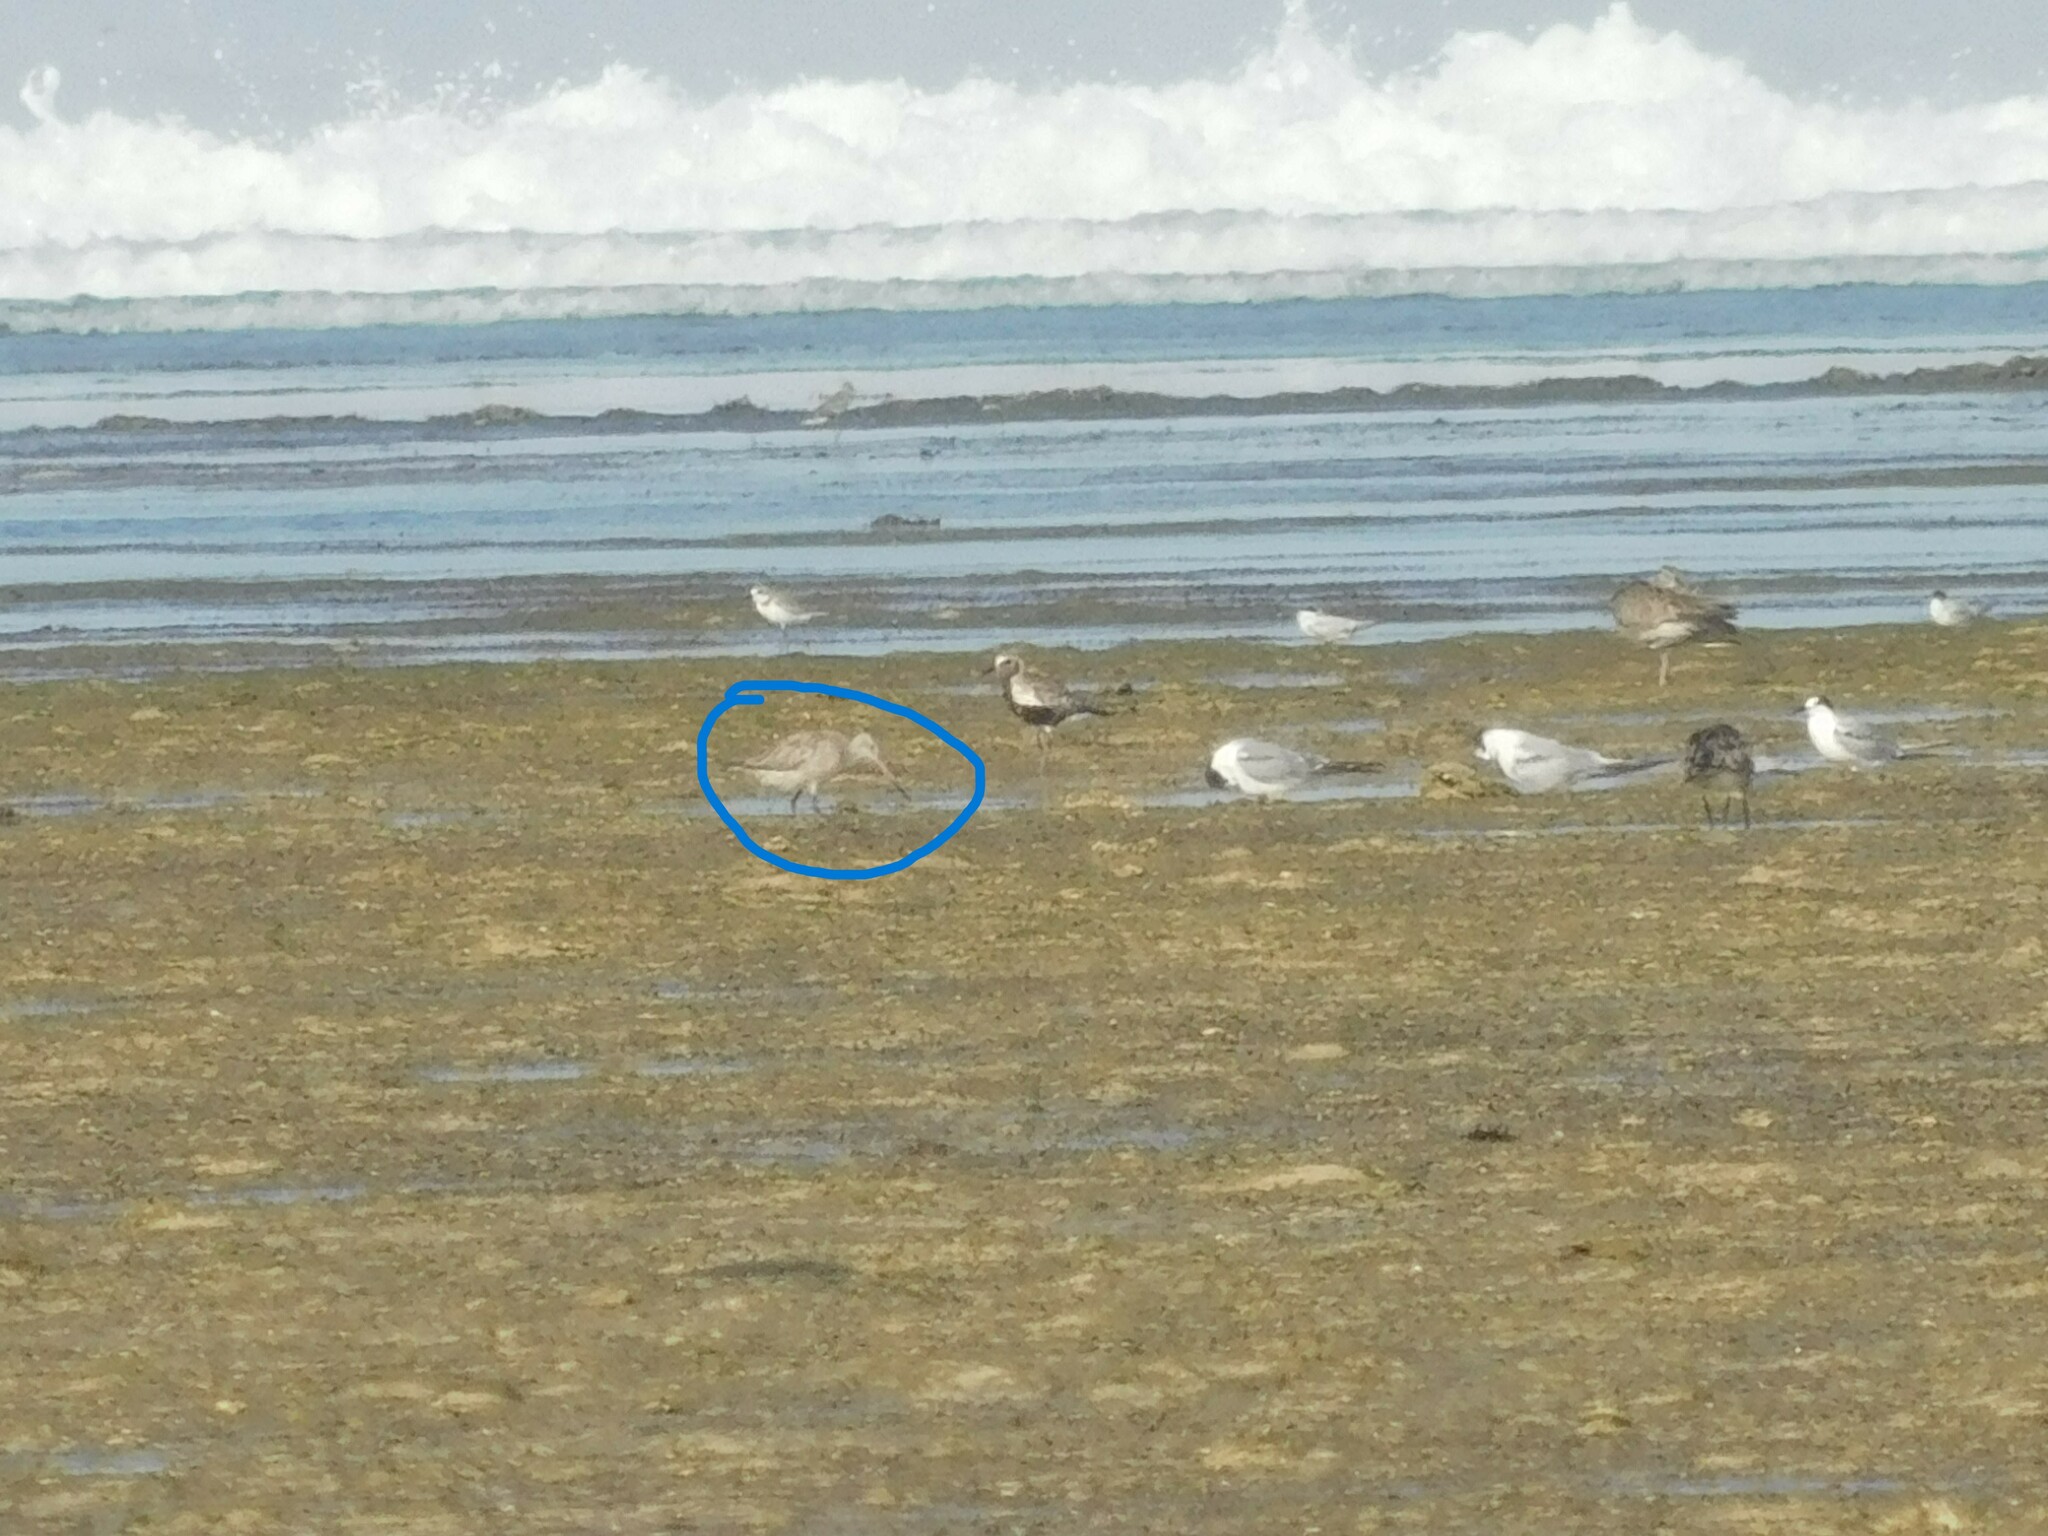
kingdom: Animalia
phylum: Chordata
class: Aves
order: Charadriiformes
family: Scolopacidae
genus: Limosa
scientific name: Limosa limosa
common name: Black-tailed godwit
